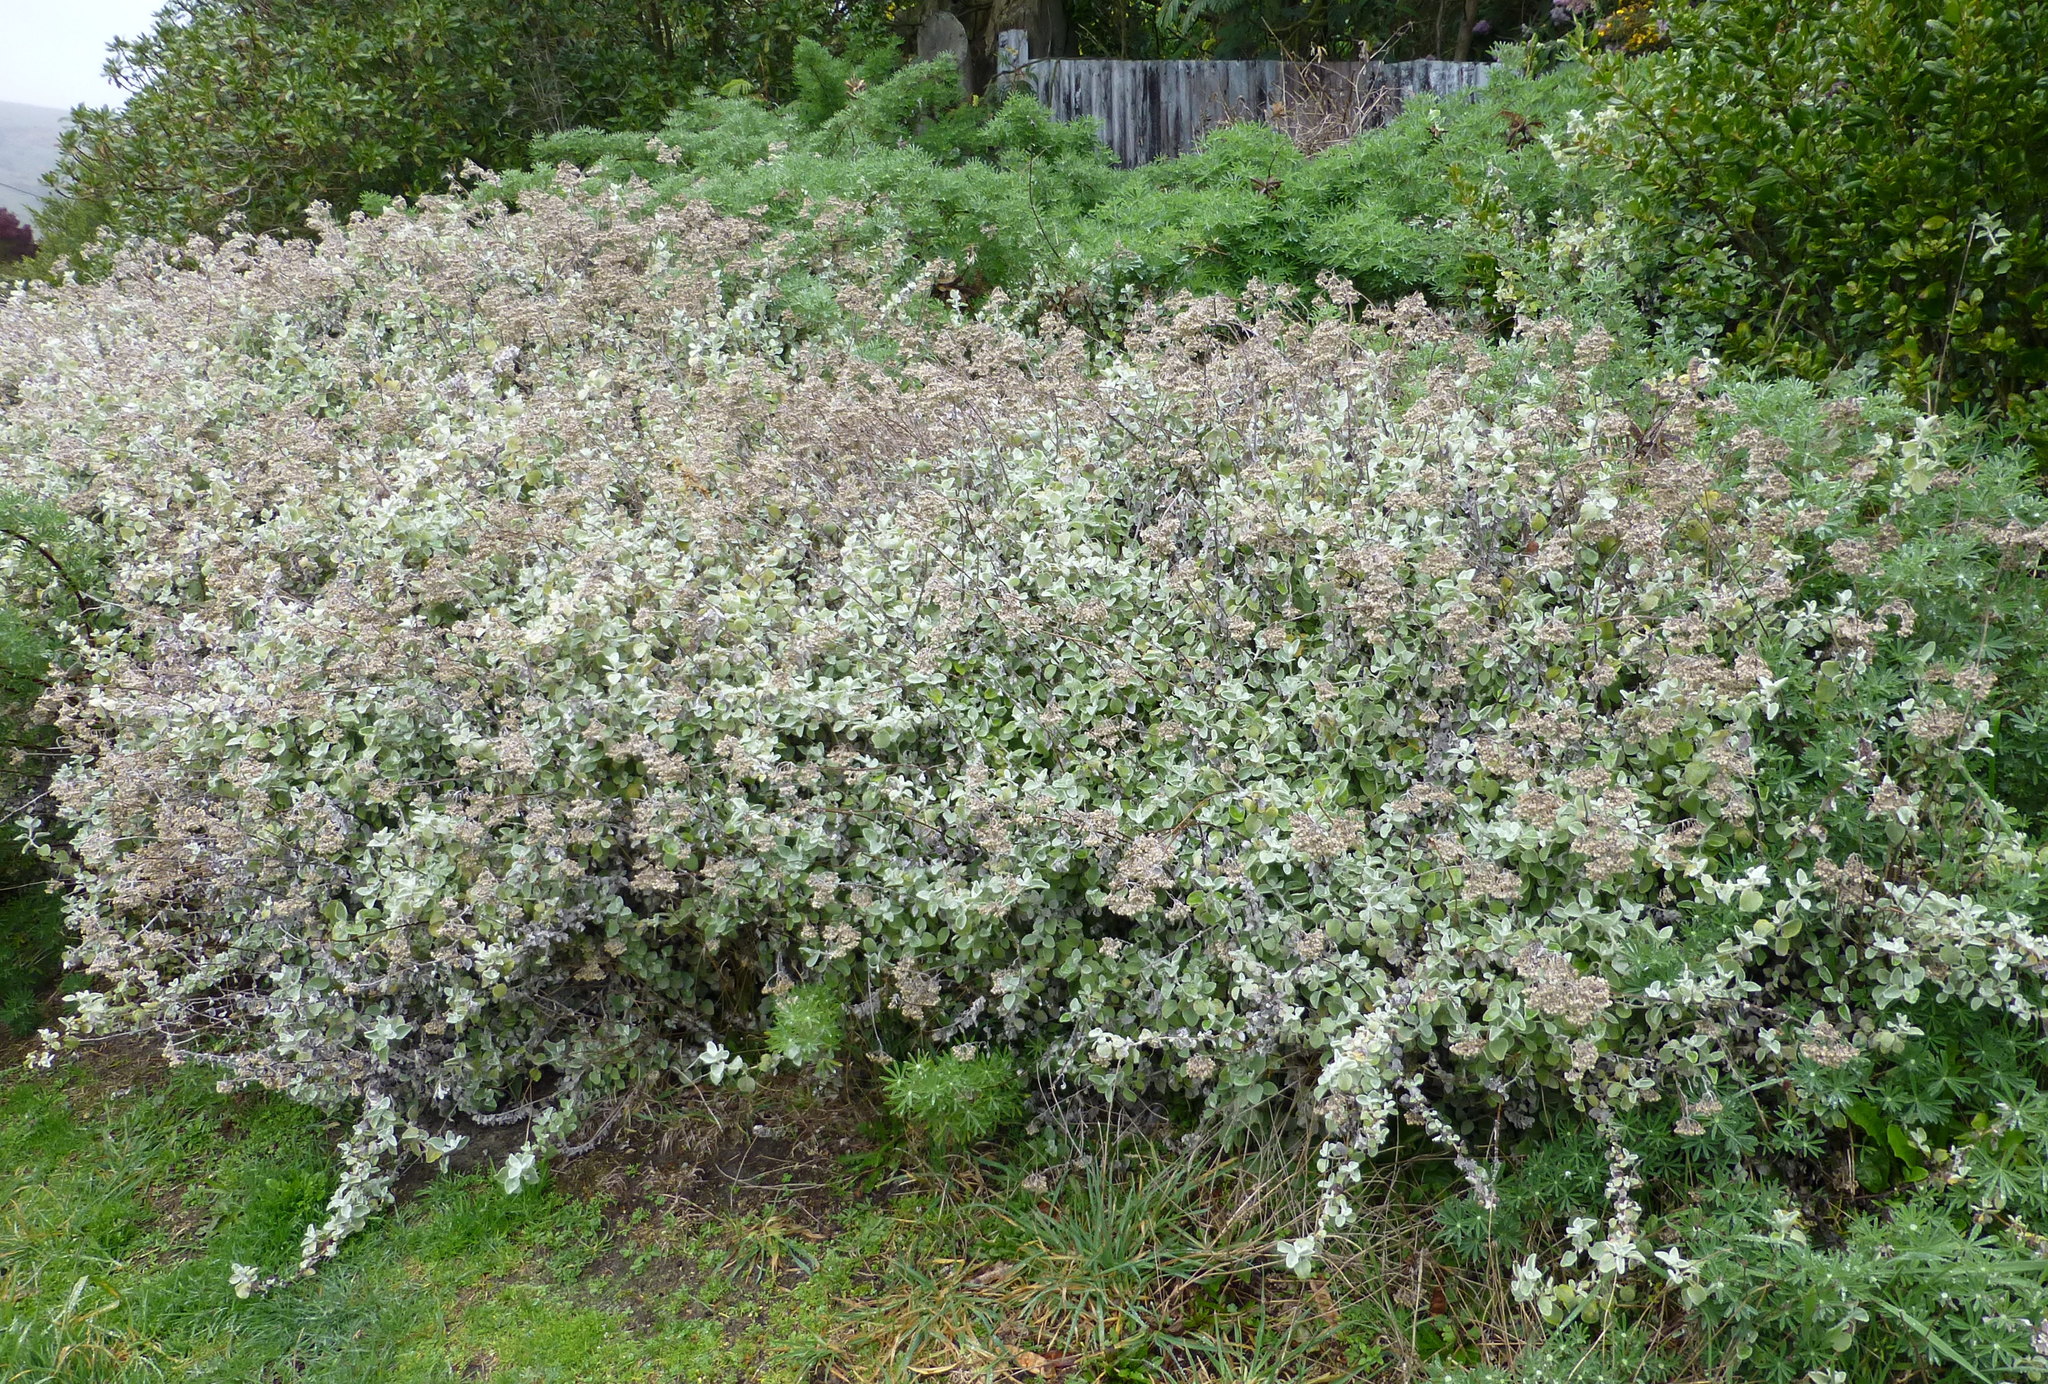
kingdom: Plantae
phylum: Tracheophyta
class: Magnoliopsida
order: Asterales
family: Asteraceae
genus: Helichrysum
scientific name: Helichrysum petiolare
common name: Licorice-plant
